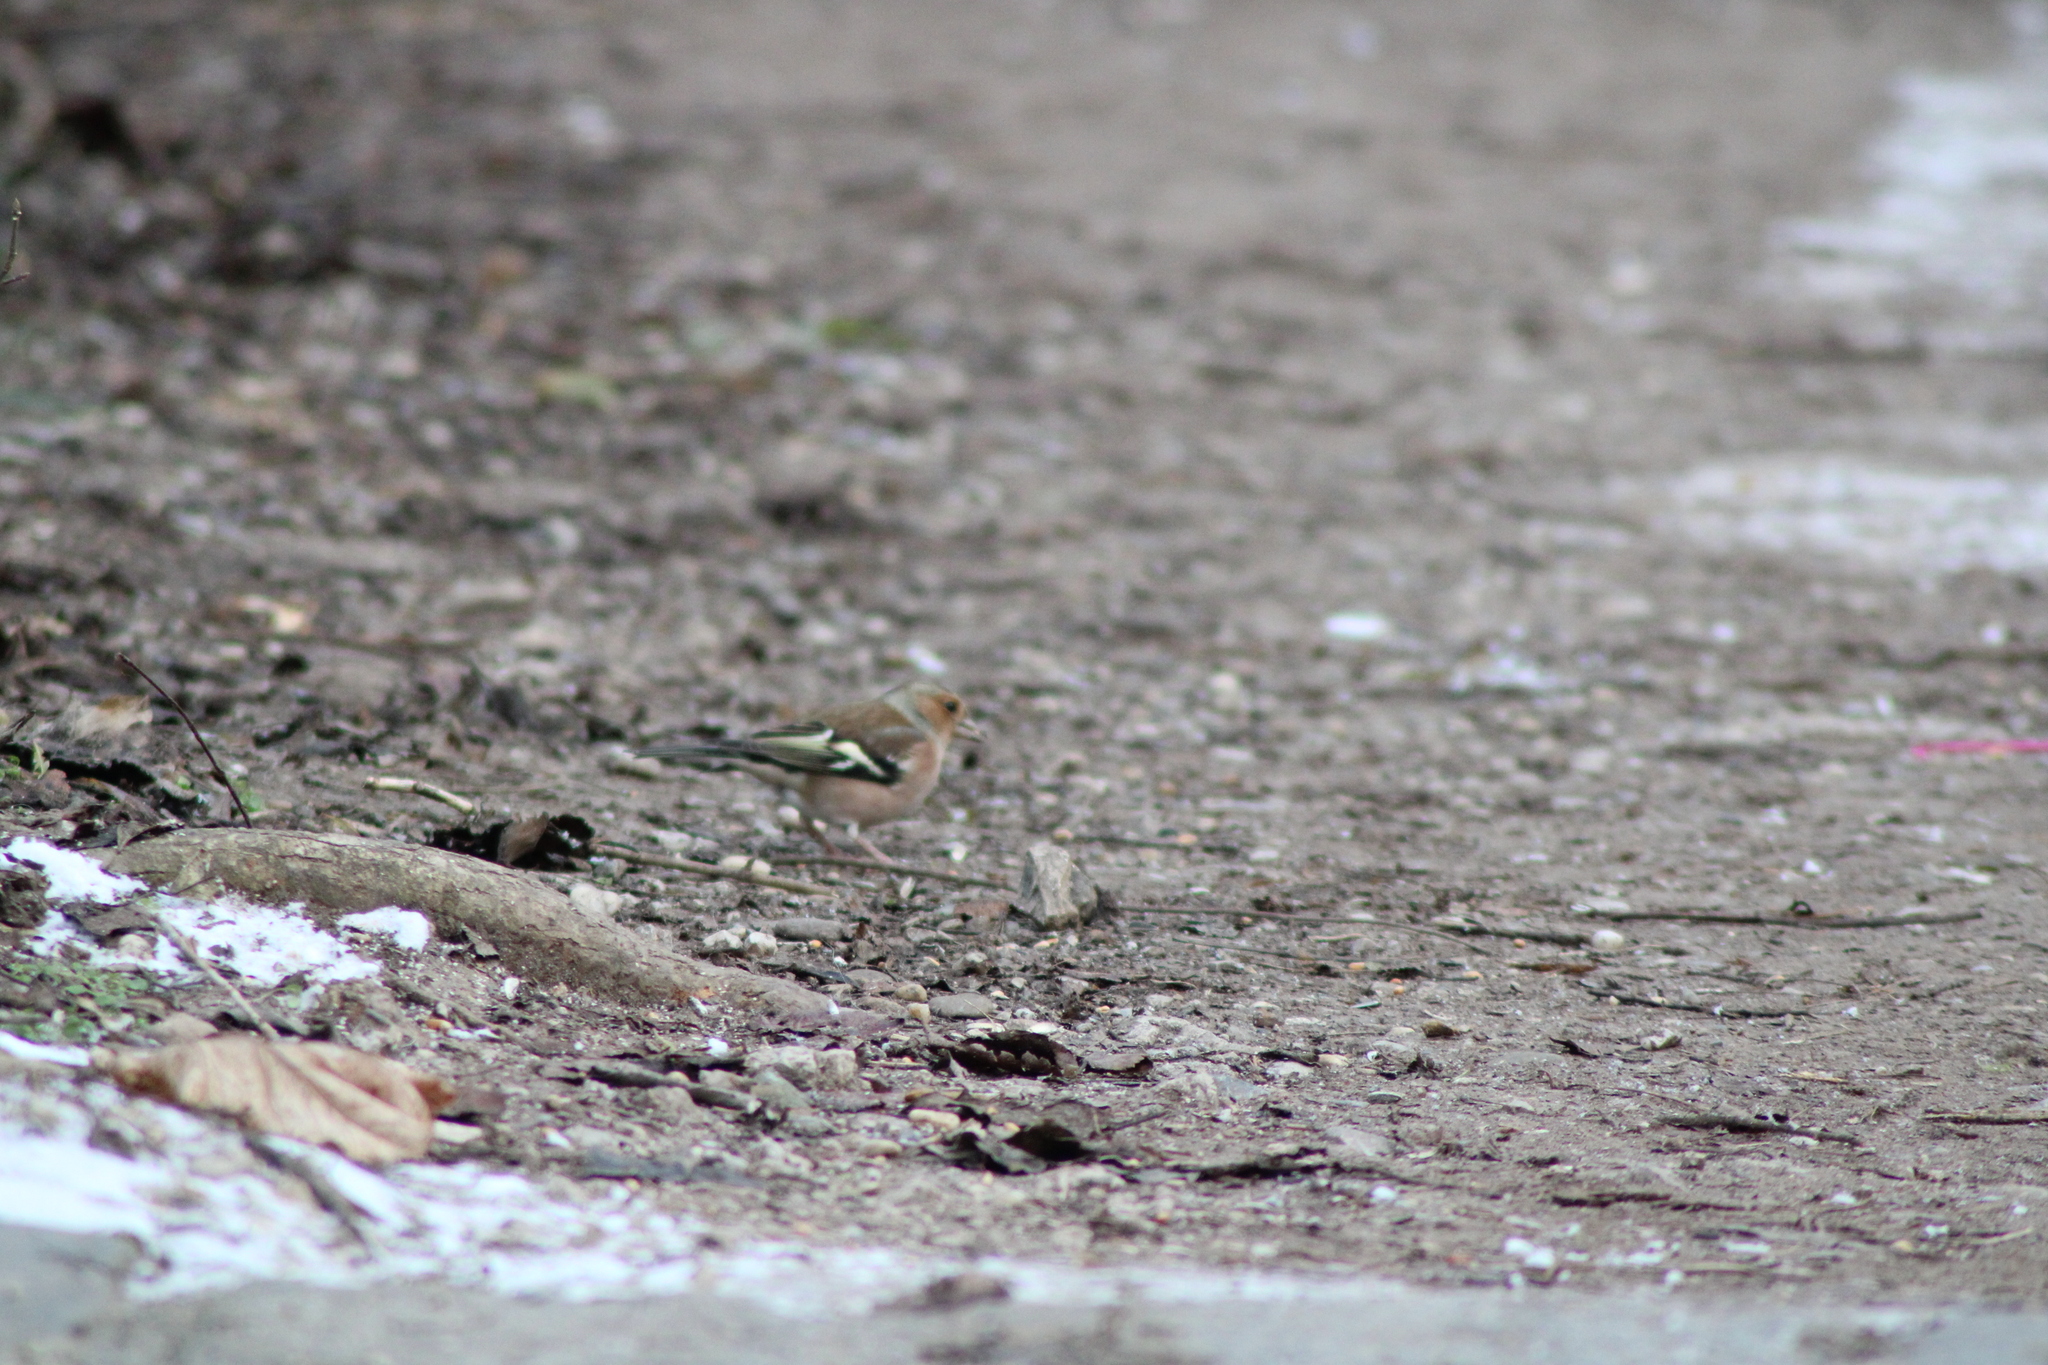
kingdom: Animalia
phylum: Chordata
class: Aves
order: Passeriformes
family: Fringillidae
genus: Fringilla
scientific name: Fringilla coelebs
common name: Common chaffinch
